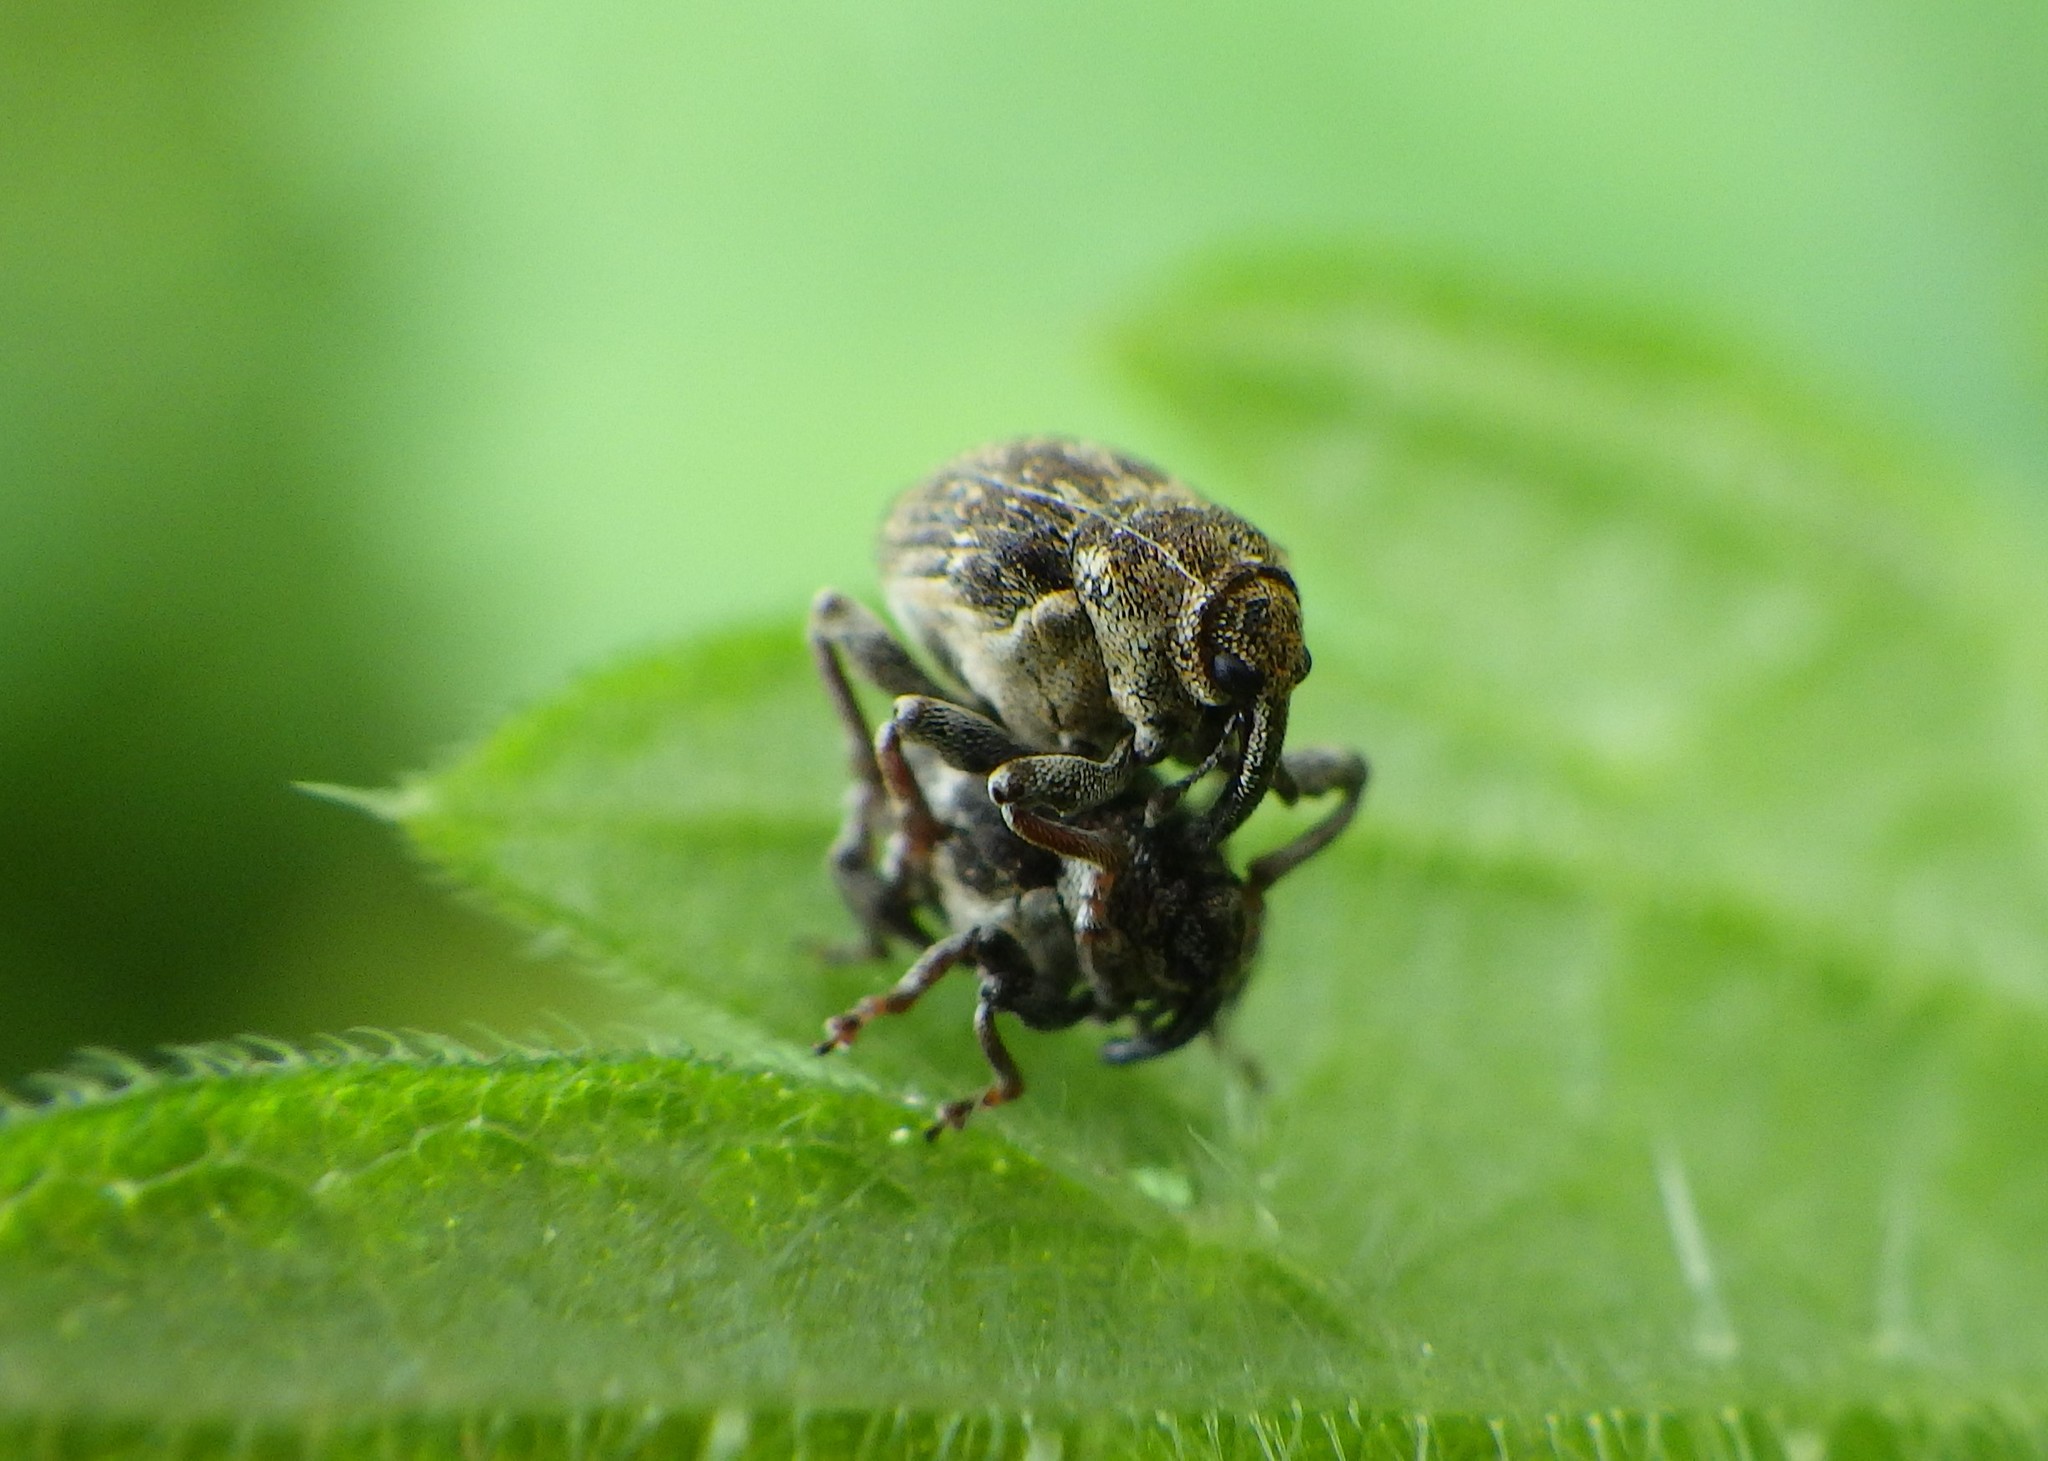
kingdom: Animalia
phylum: Arthropoda
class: Insecta
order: Coleoptera
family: Curculionidae
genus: Nedyus
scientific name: Nedyus quadrimaculatus
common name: Small nettle weevil
